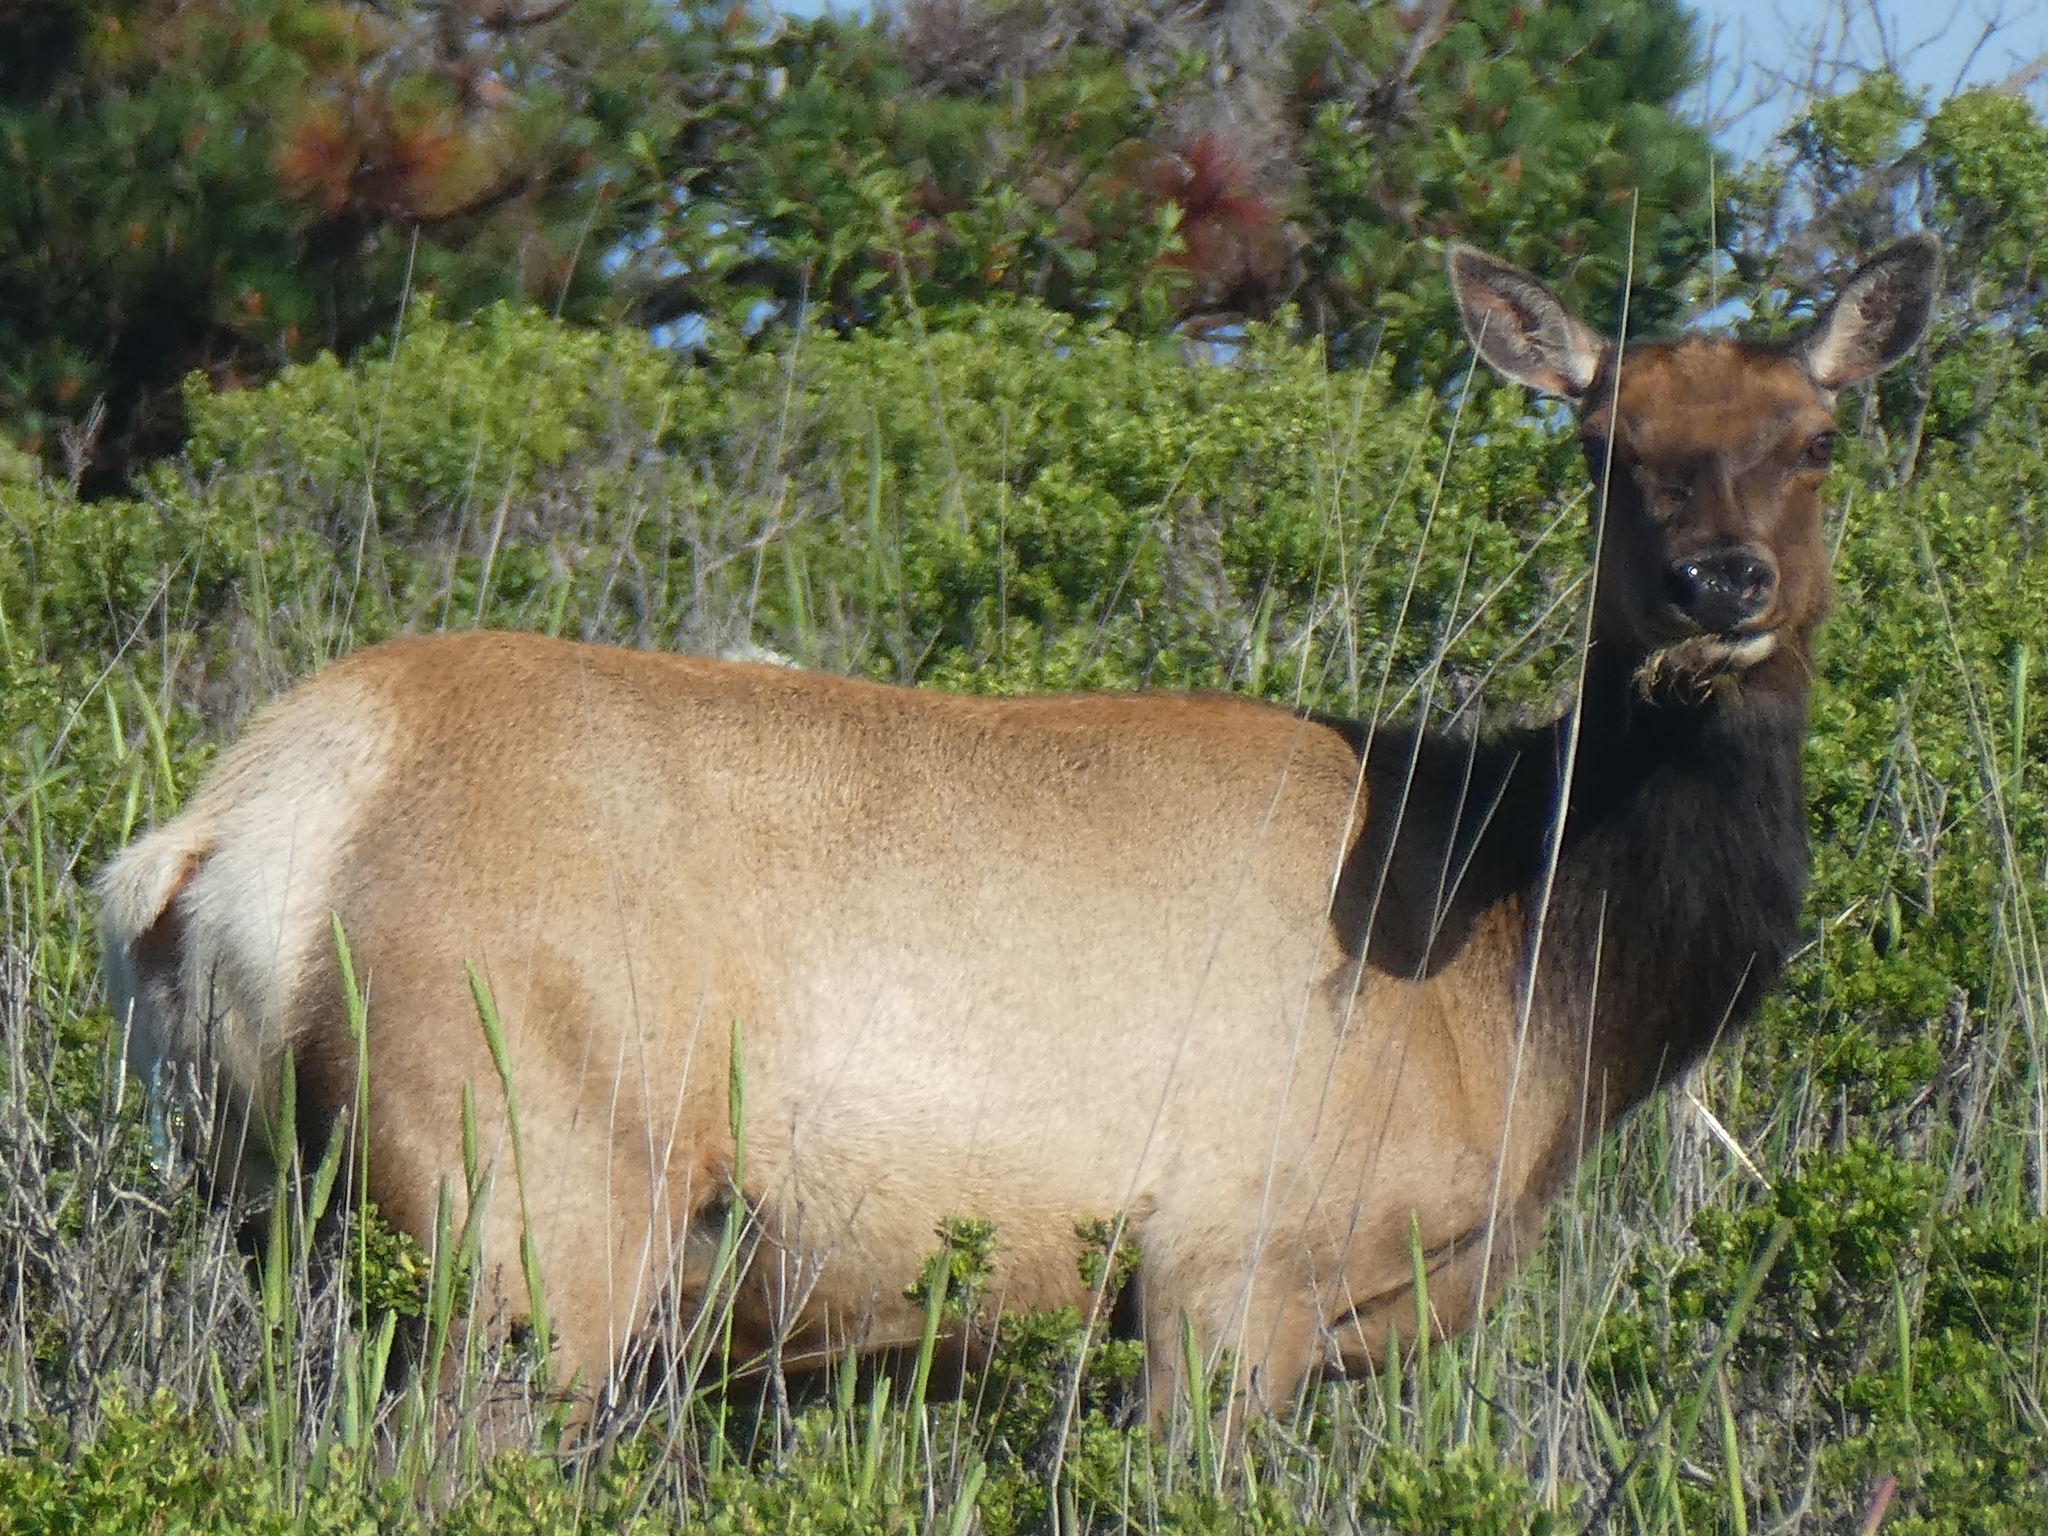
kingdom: Animalia
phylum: Chordata
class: Mammalia
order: Artiodactyla
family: Cervidae
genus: Cervus
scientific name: Cervus elaphus
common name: Red deer
